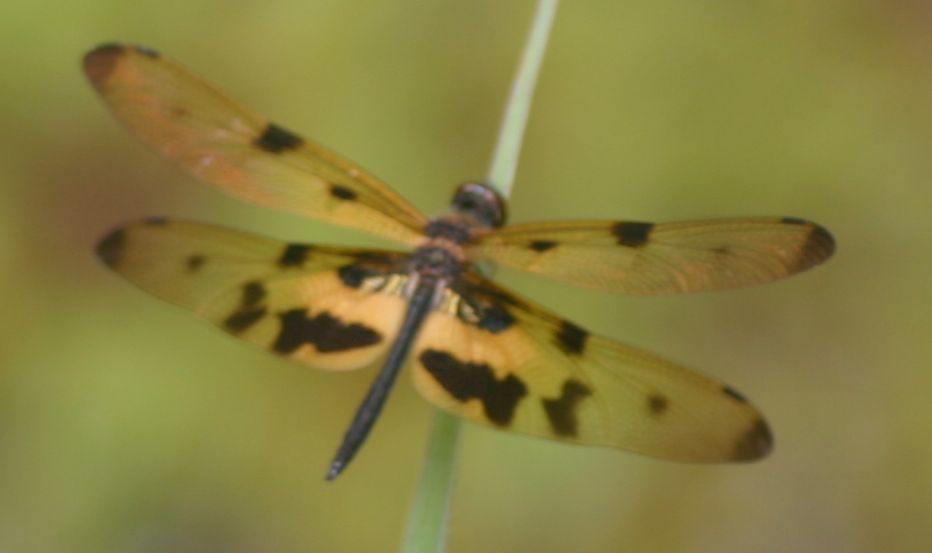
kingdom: Animalia
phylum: Arthropoda
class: Insecta
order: Odonata
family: Libellulidae
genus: Rhyothemis
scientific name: Rhyothemis variegata
